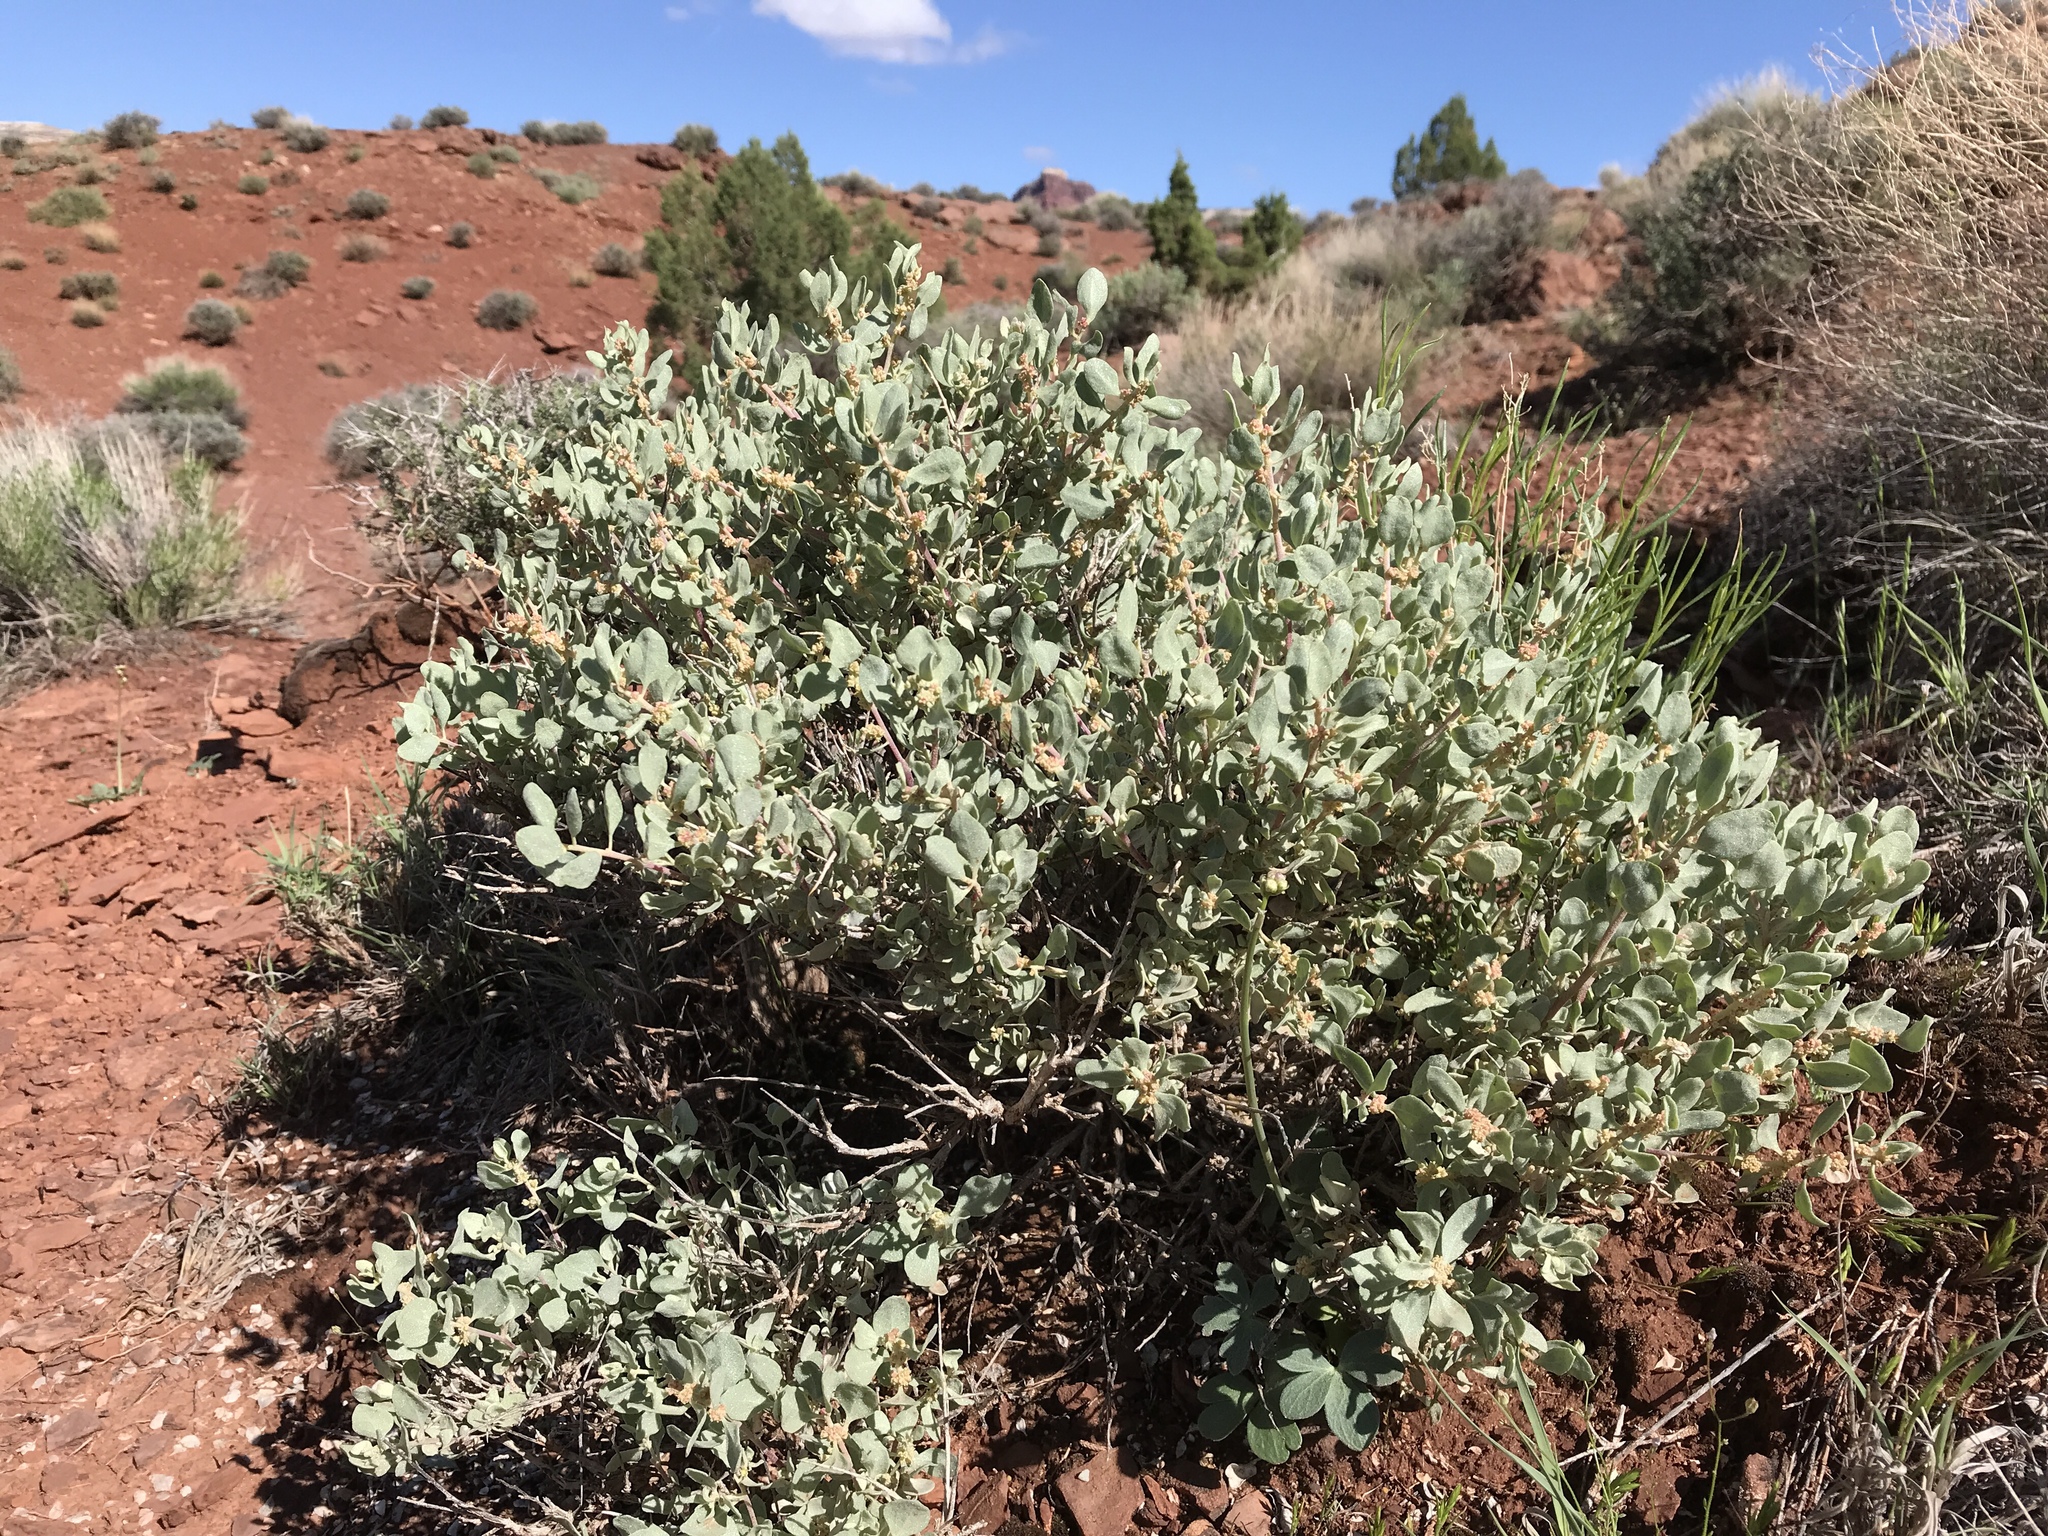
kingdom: Plantae
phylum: Tracheophyta
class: Magnoliopsida
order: Caryophyllales
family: Amaranthaceae
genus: Atriplex
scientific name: Atriplex confertifolia
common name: Shadscale
